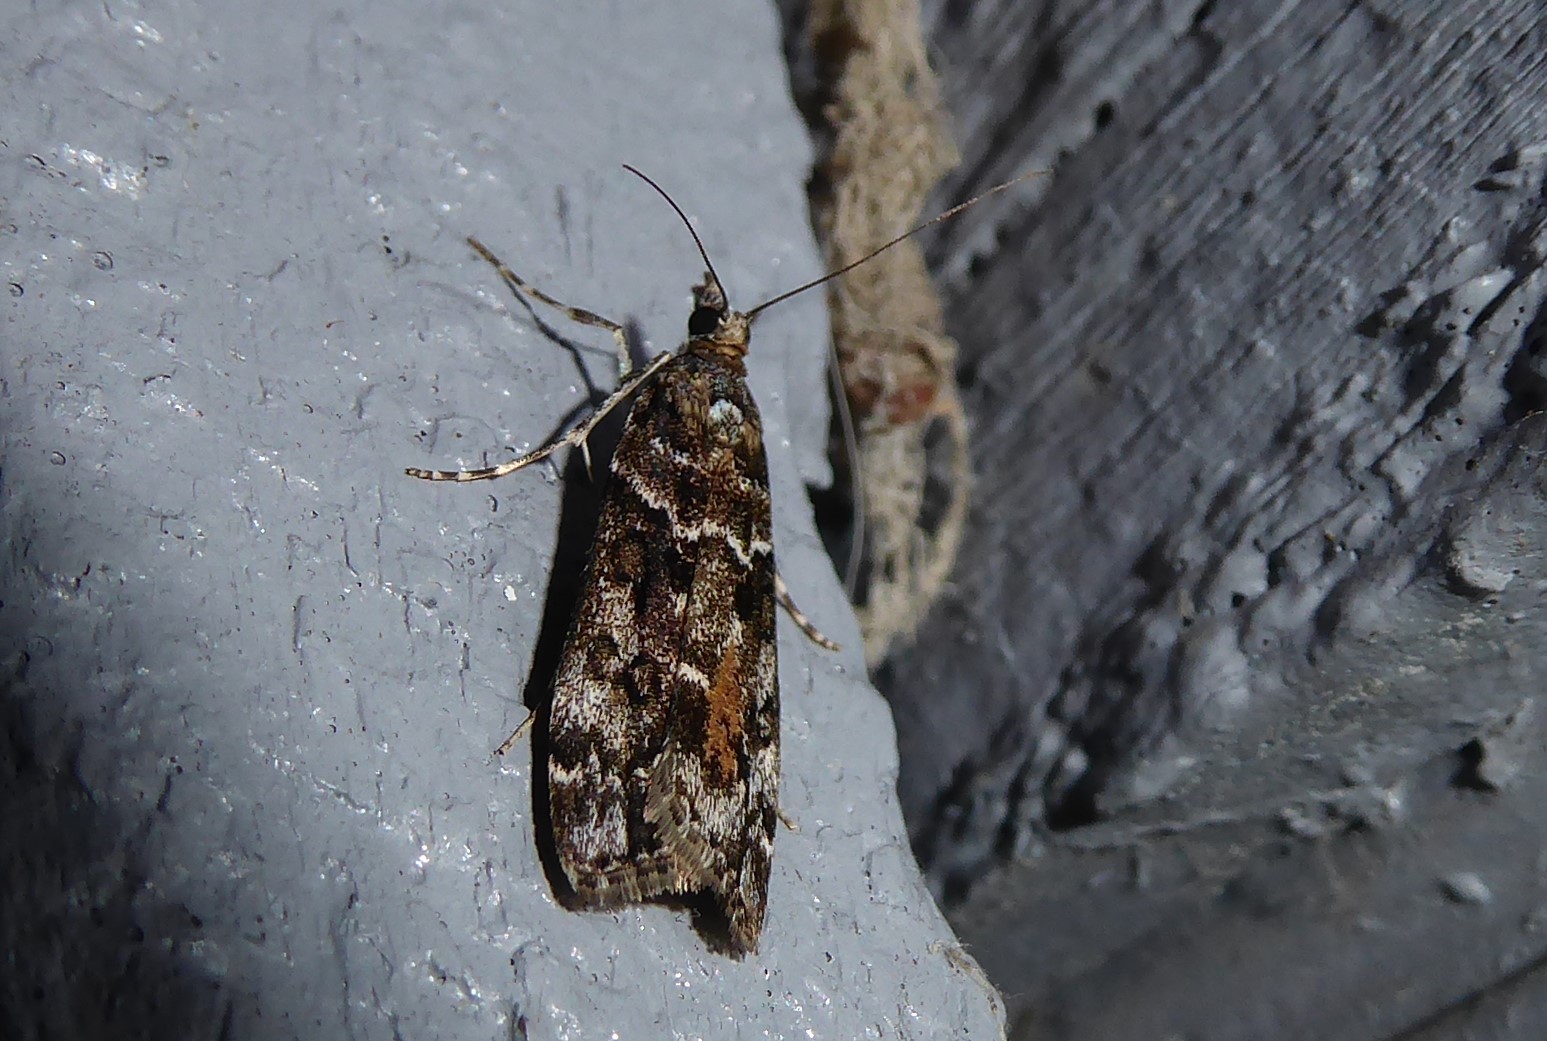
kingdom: Animalia
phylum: Arthropoda
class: Insecta
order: Lepidoptera
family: Crambidae
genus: Eudonia
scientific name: Eudonia submarginalis
